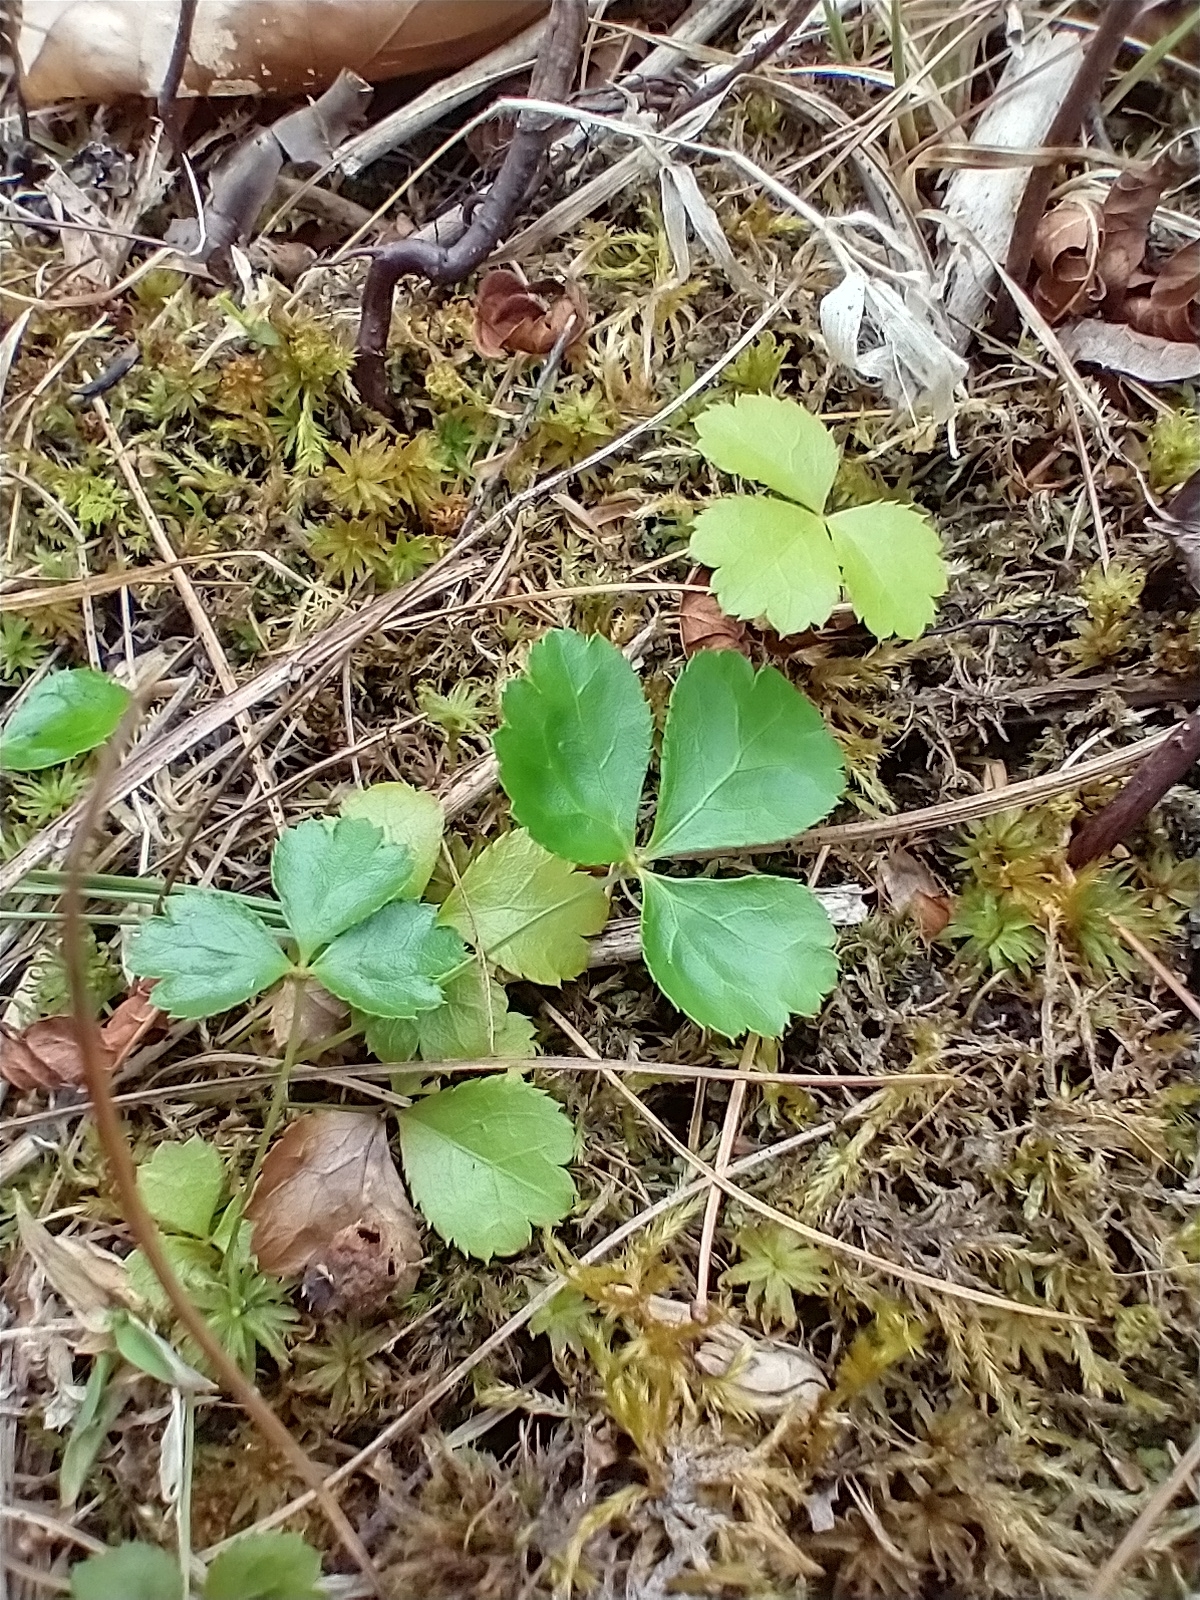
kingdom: Plantae
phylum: Tracheophyta
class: Magnoliopsida
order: Ranunculales
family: Ranunculaceae
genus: Coptis
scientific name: Coptis trifolia
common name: Canker-root
